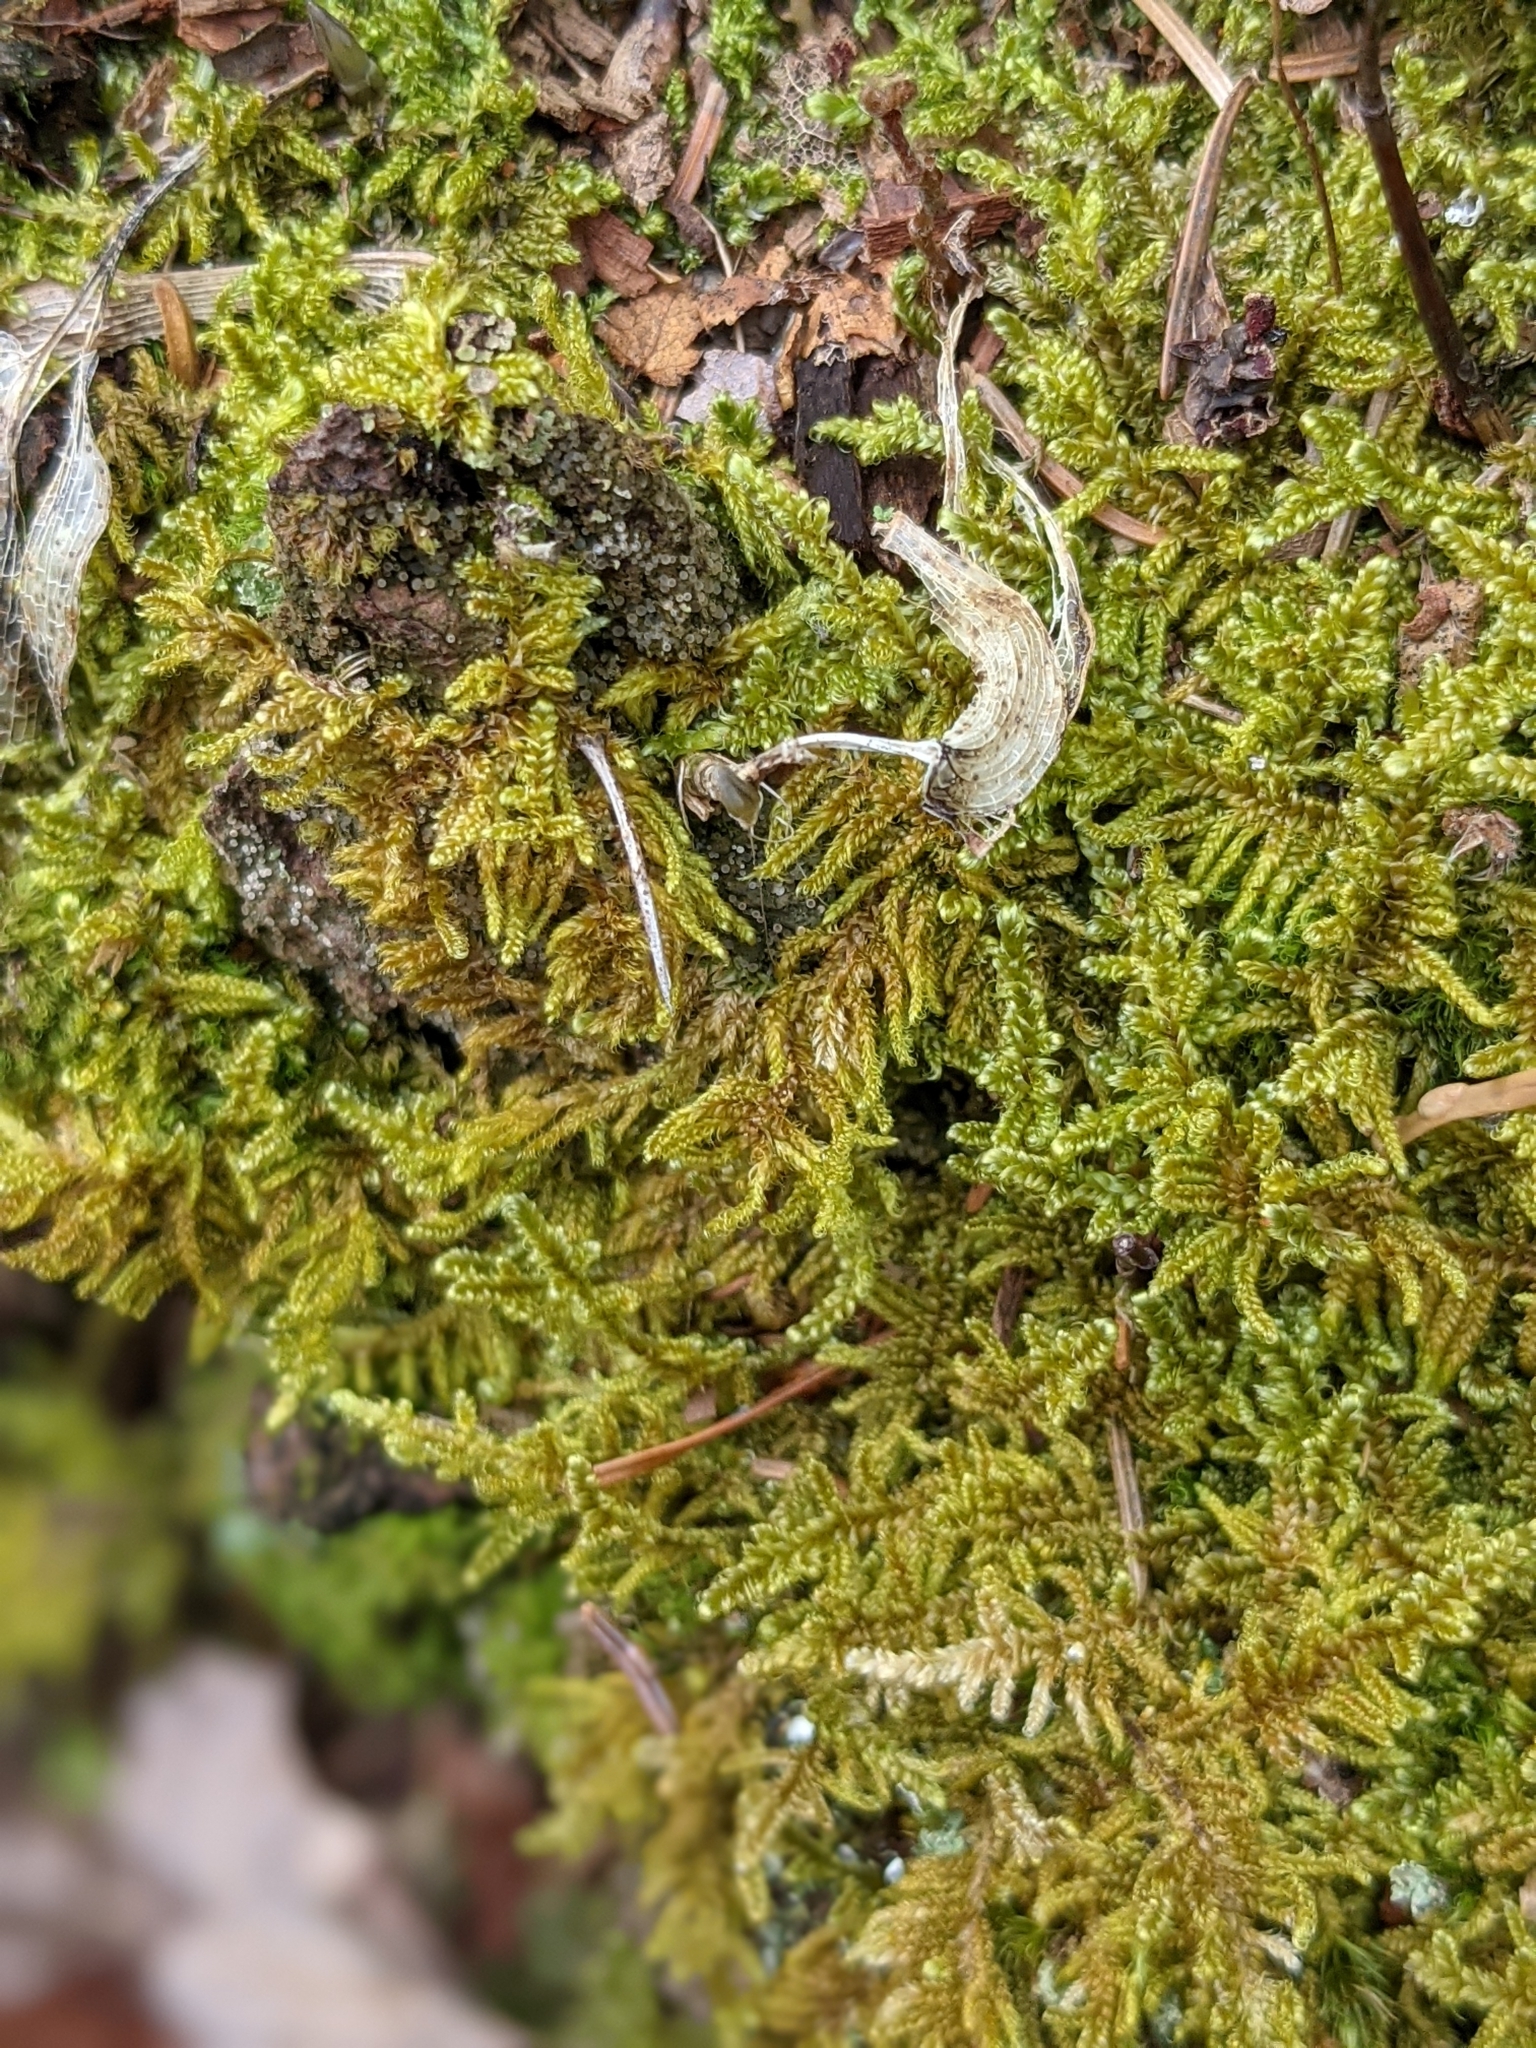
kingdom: Plantae
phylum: Bryophyta
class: Bryopsida
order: Hypnales
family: Callicladiaceae
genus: Callicladium
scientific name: Callicladium imponens
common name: Brocade moss
